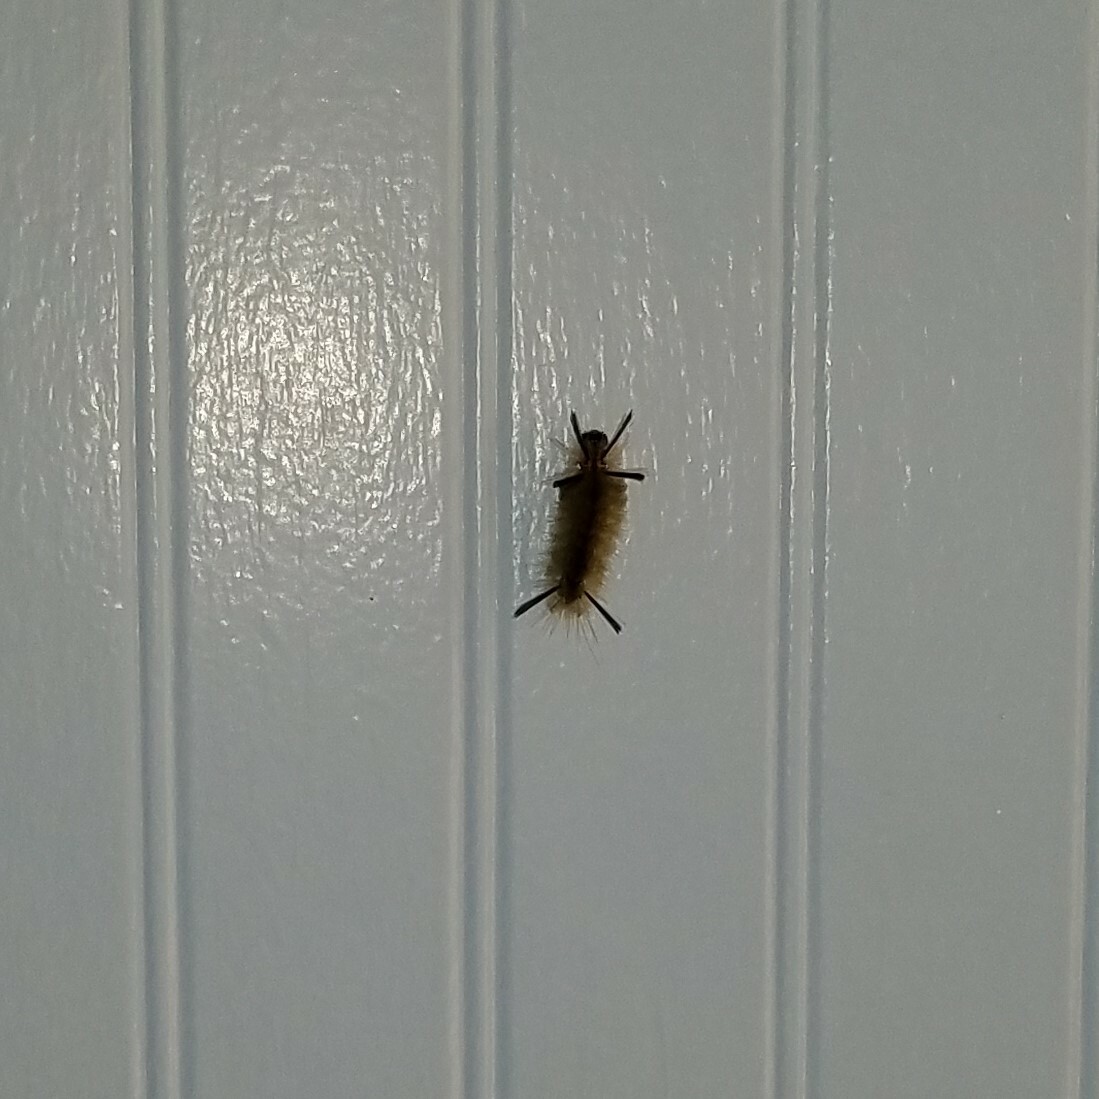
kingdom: Animalia
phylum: Arthropoda
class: Insecta
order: Lepidoptera
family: Erebidae
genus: Halysidota
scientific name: Halysidota tessellaris
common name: Banded tussock moth
